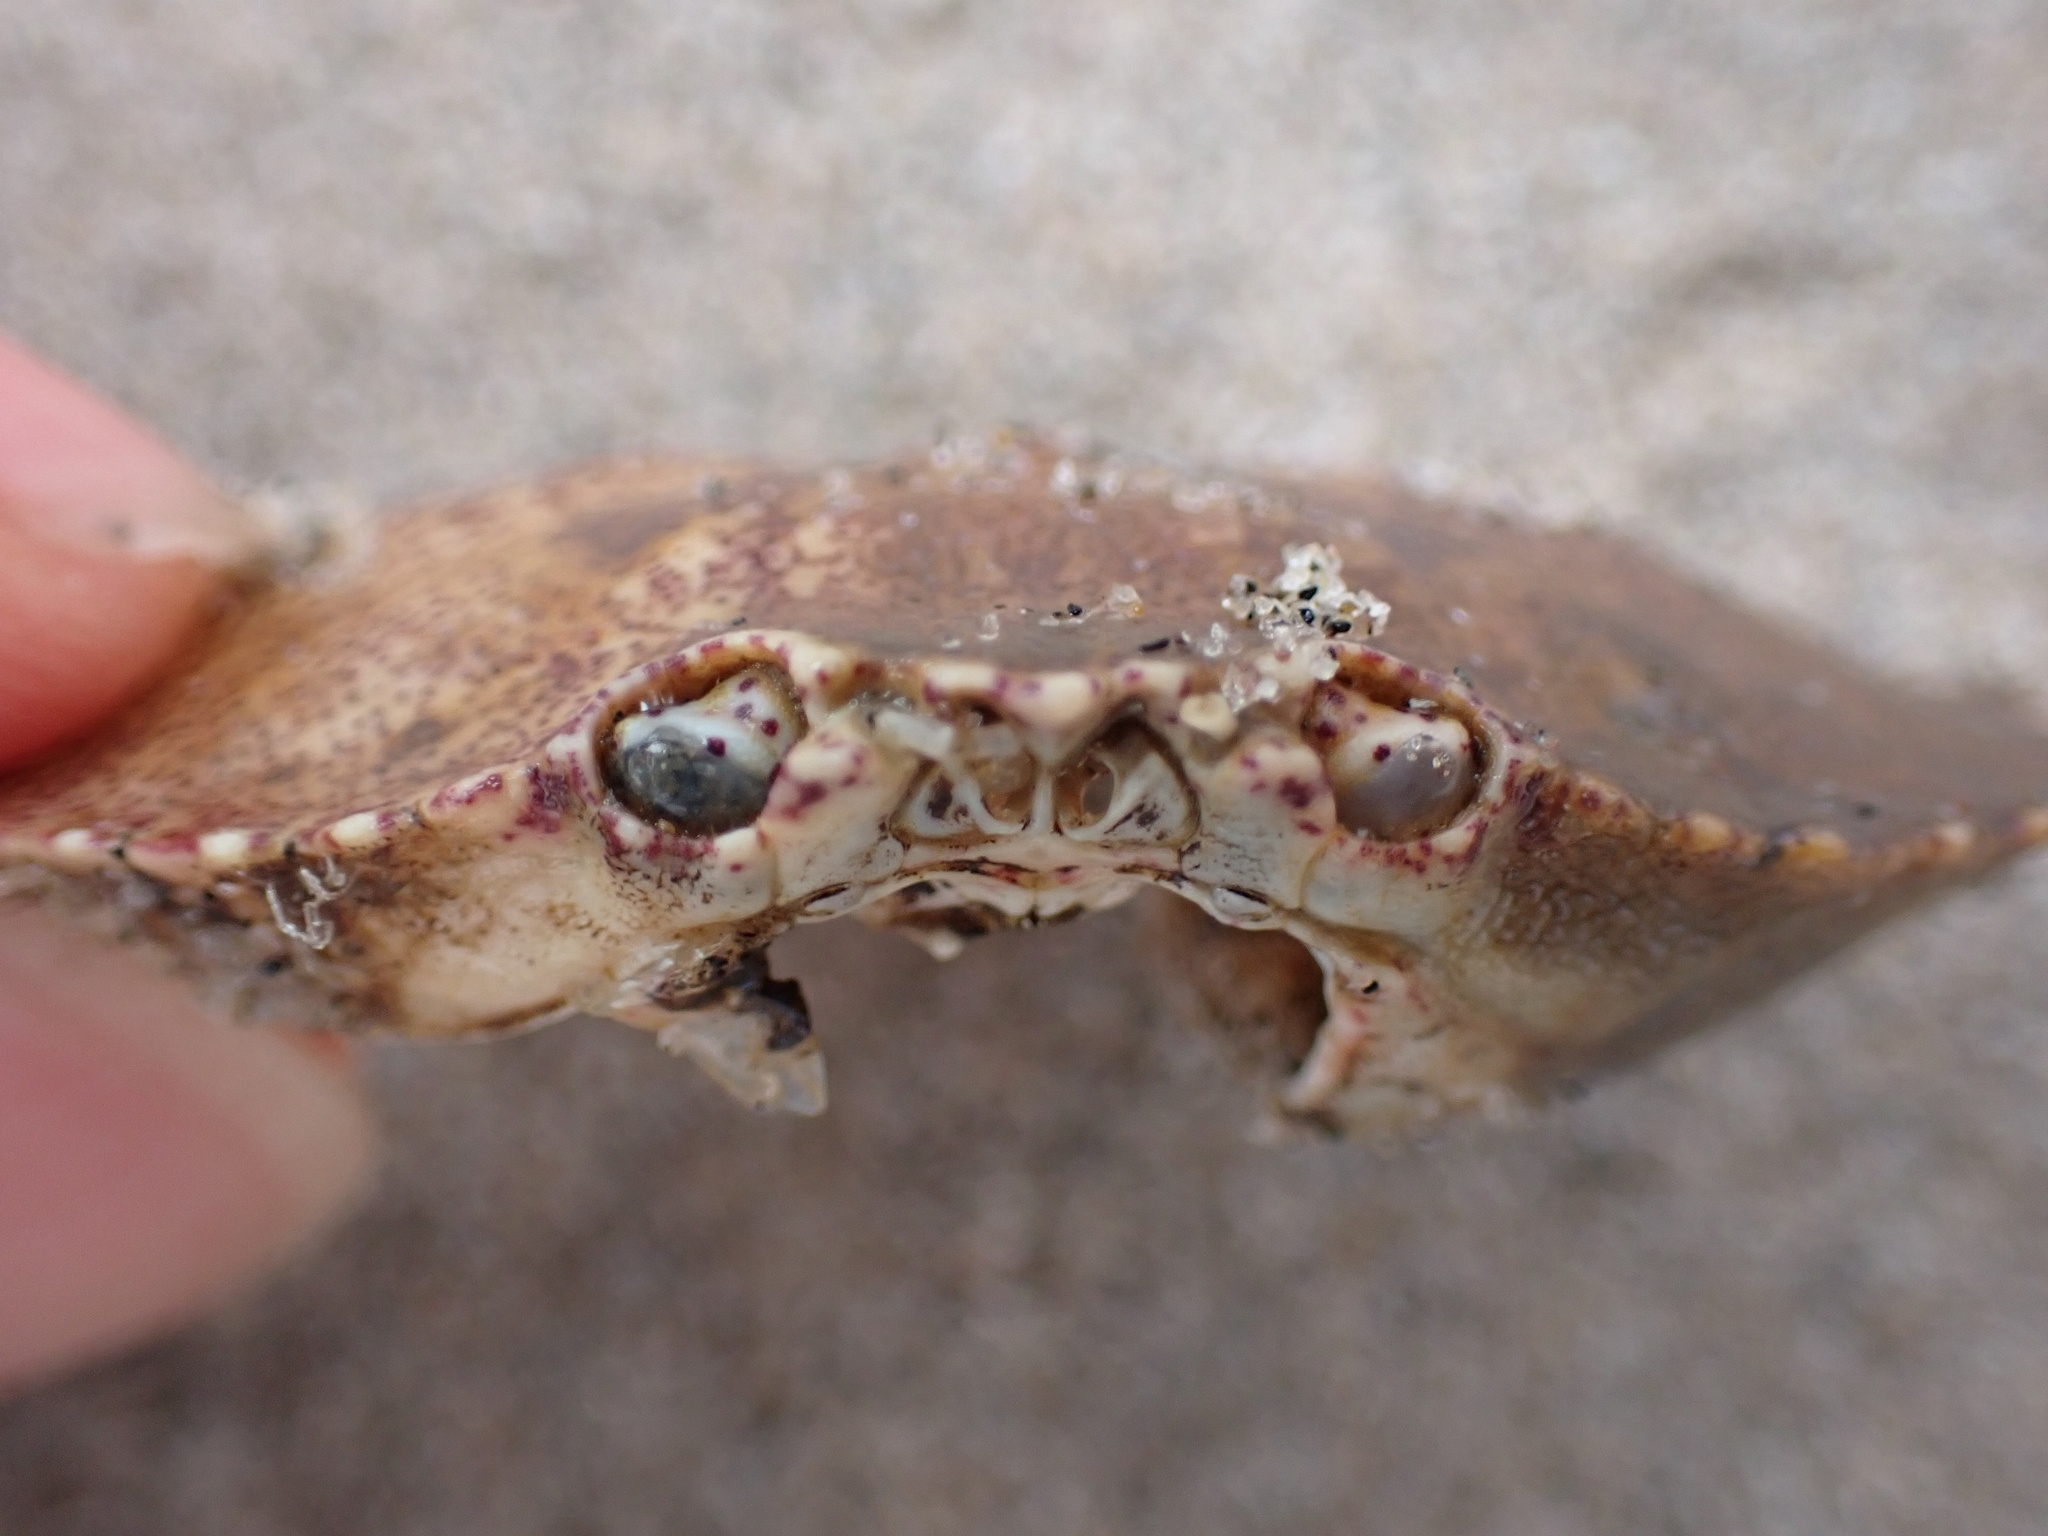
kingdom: Animalia
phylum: Arthropoda
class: Malacostraca
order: Decapoda
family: Cancridae
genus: Cancer
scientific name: Cancer irroratus
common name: Atlantic rock crab
